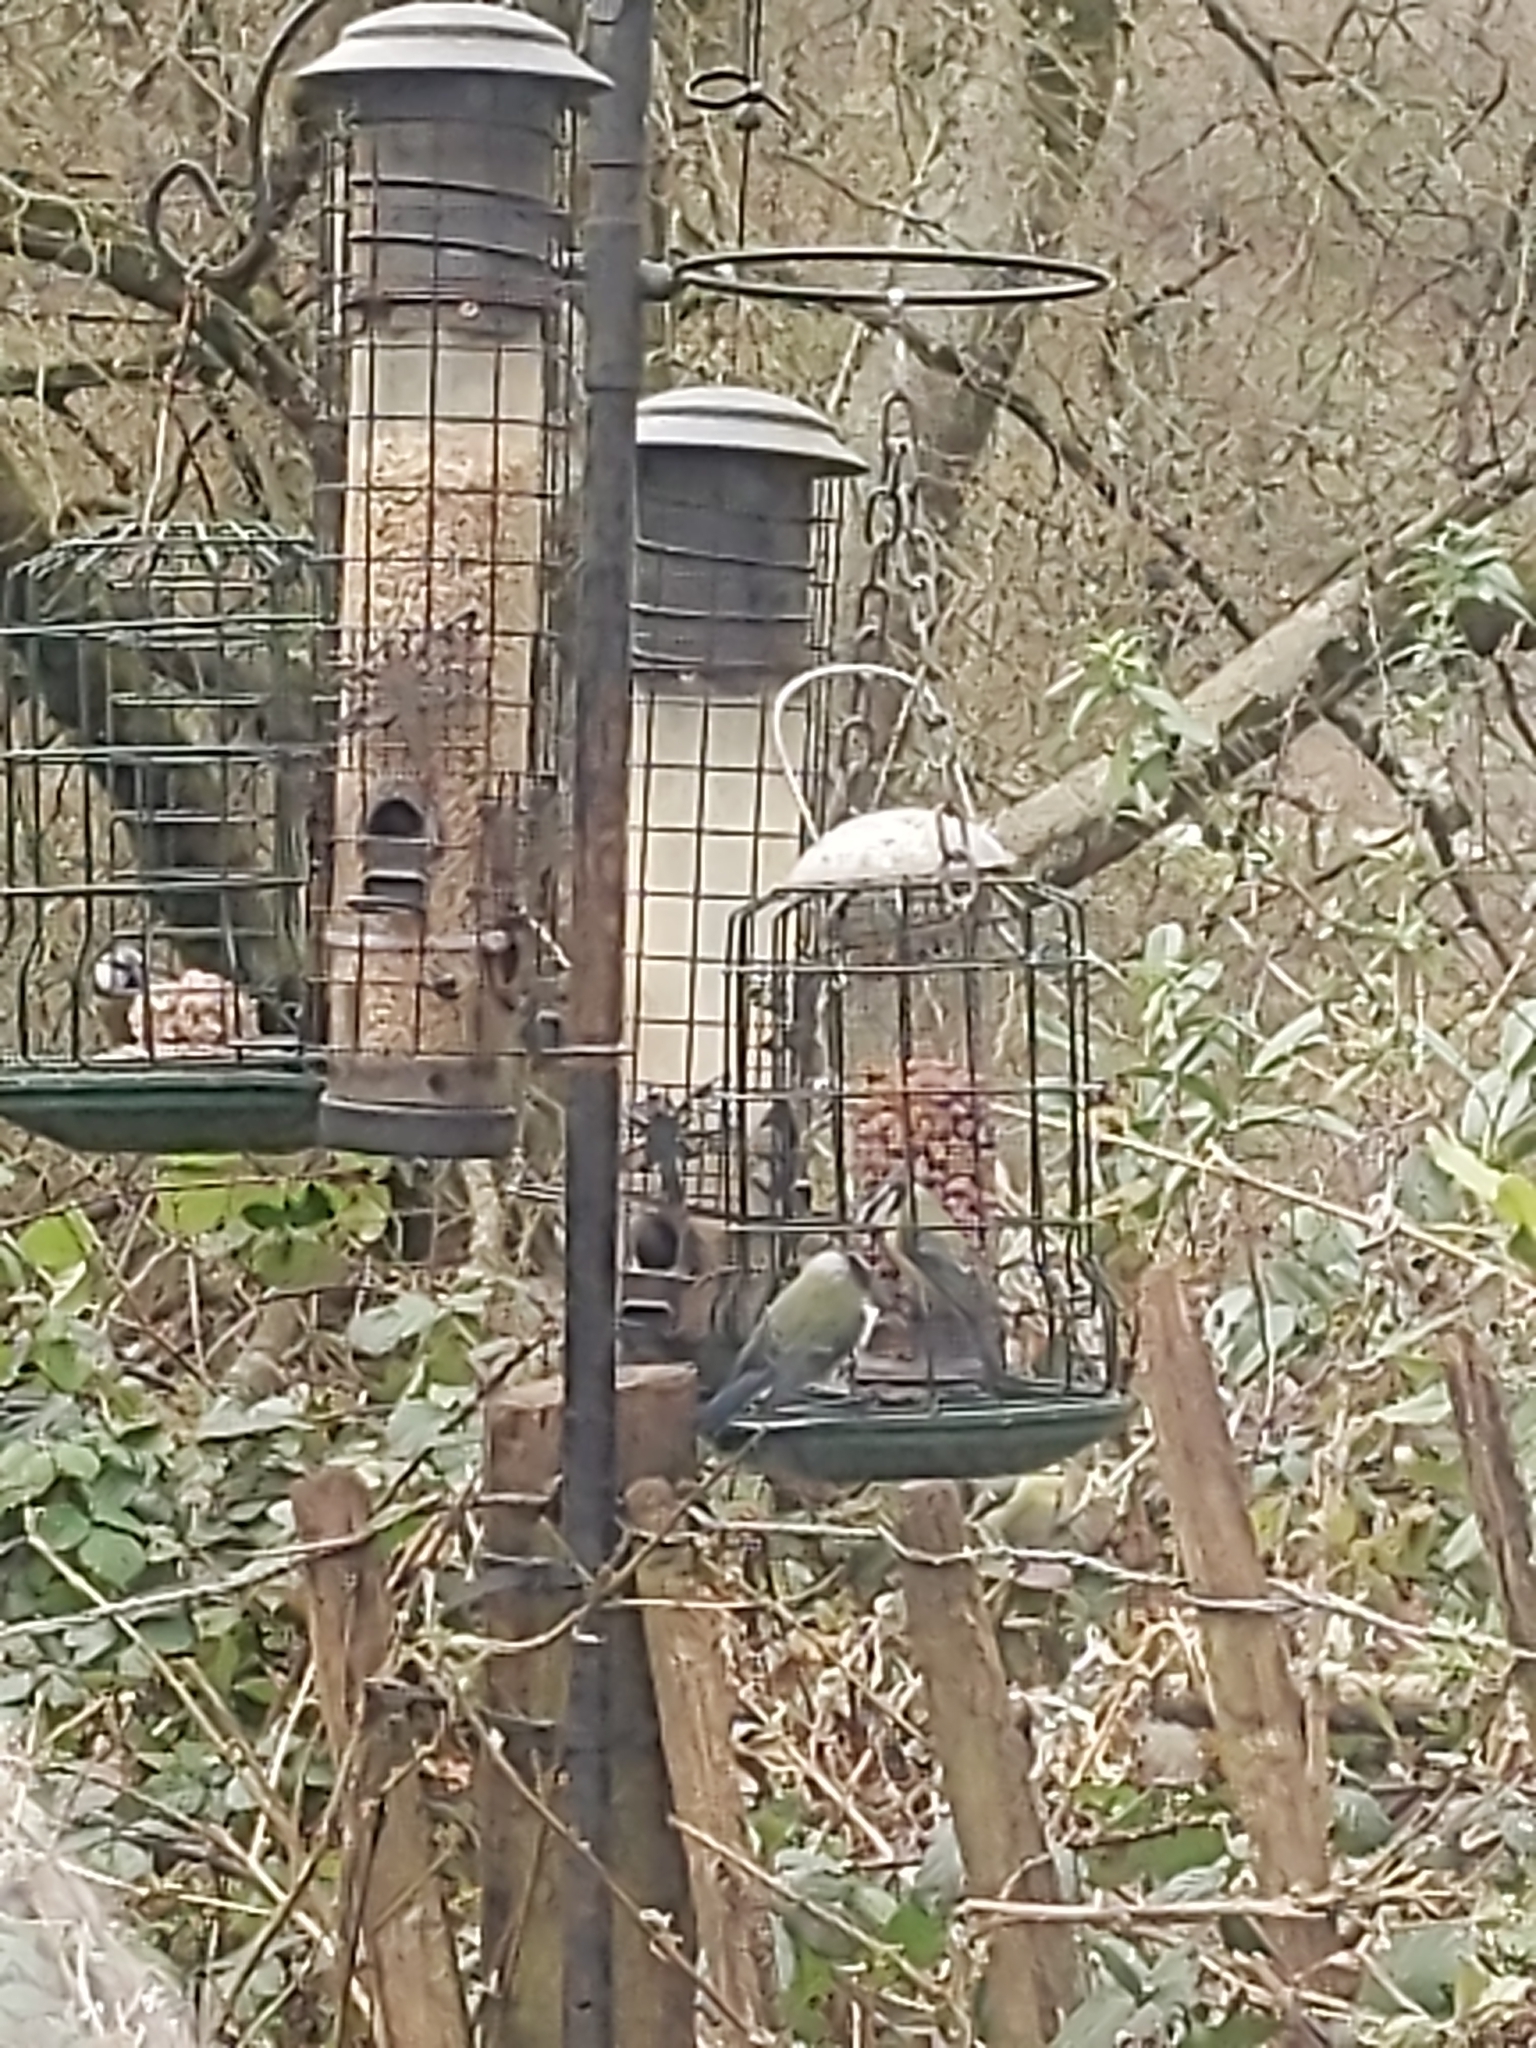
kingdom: Animalia
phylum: Chordata
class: Aves
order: Passeriformes
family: Paridae
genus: Cyanistes
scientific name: Cyanistes caeruleus
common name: Eurasian blue tit
